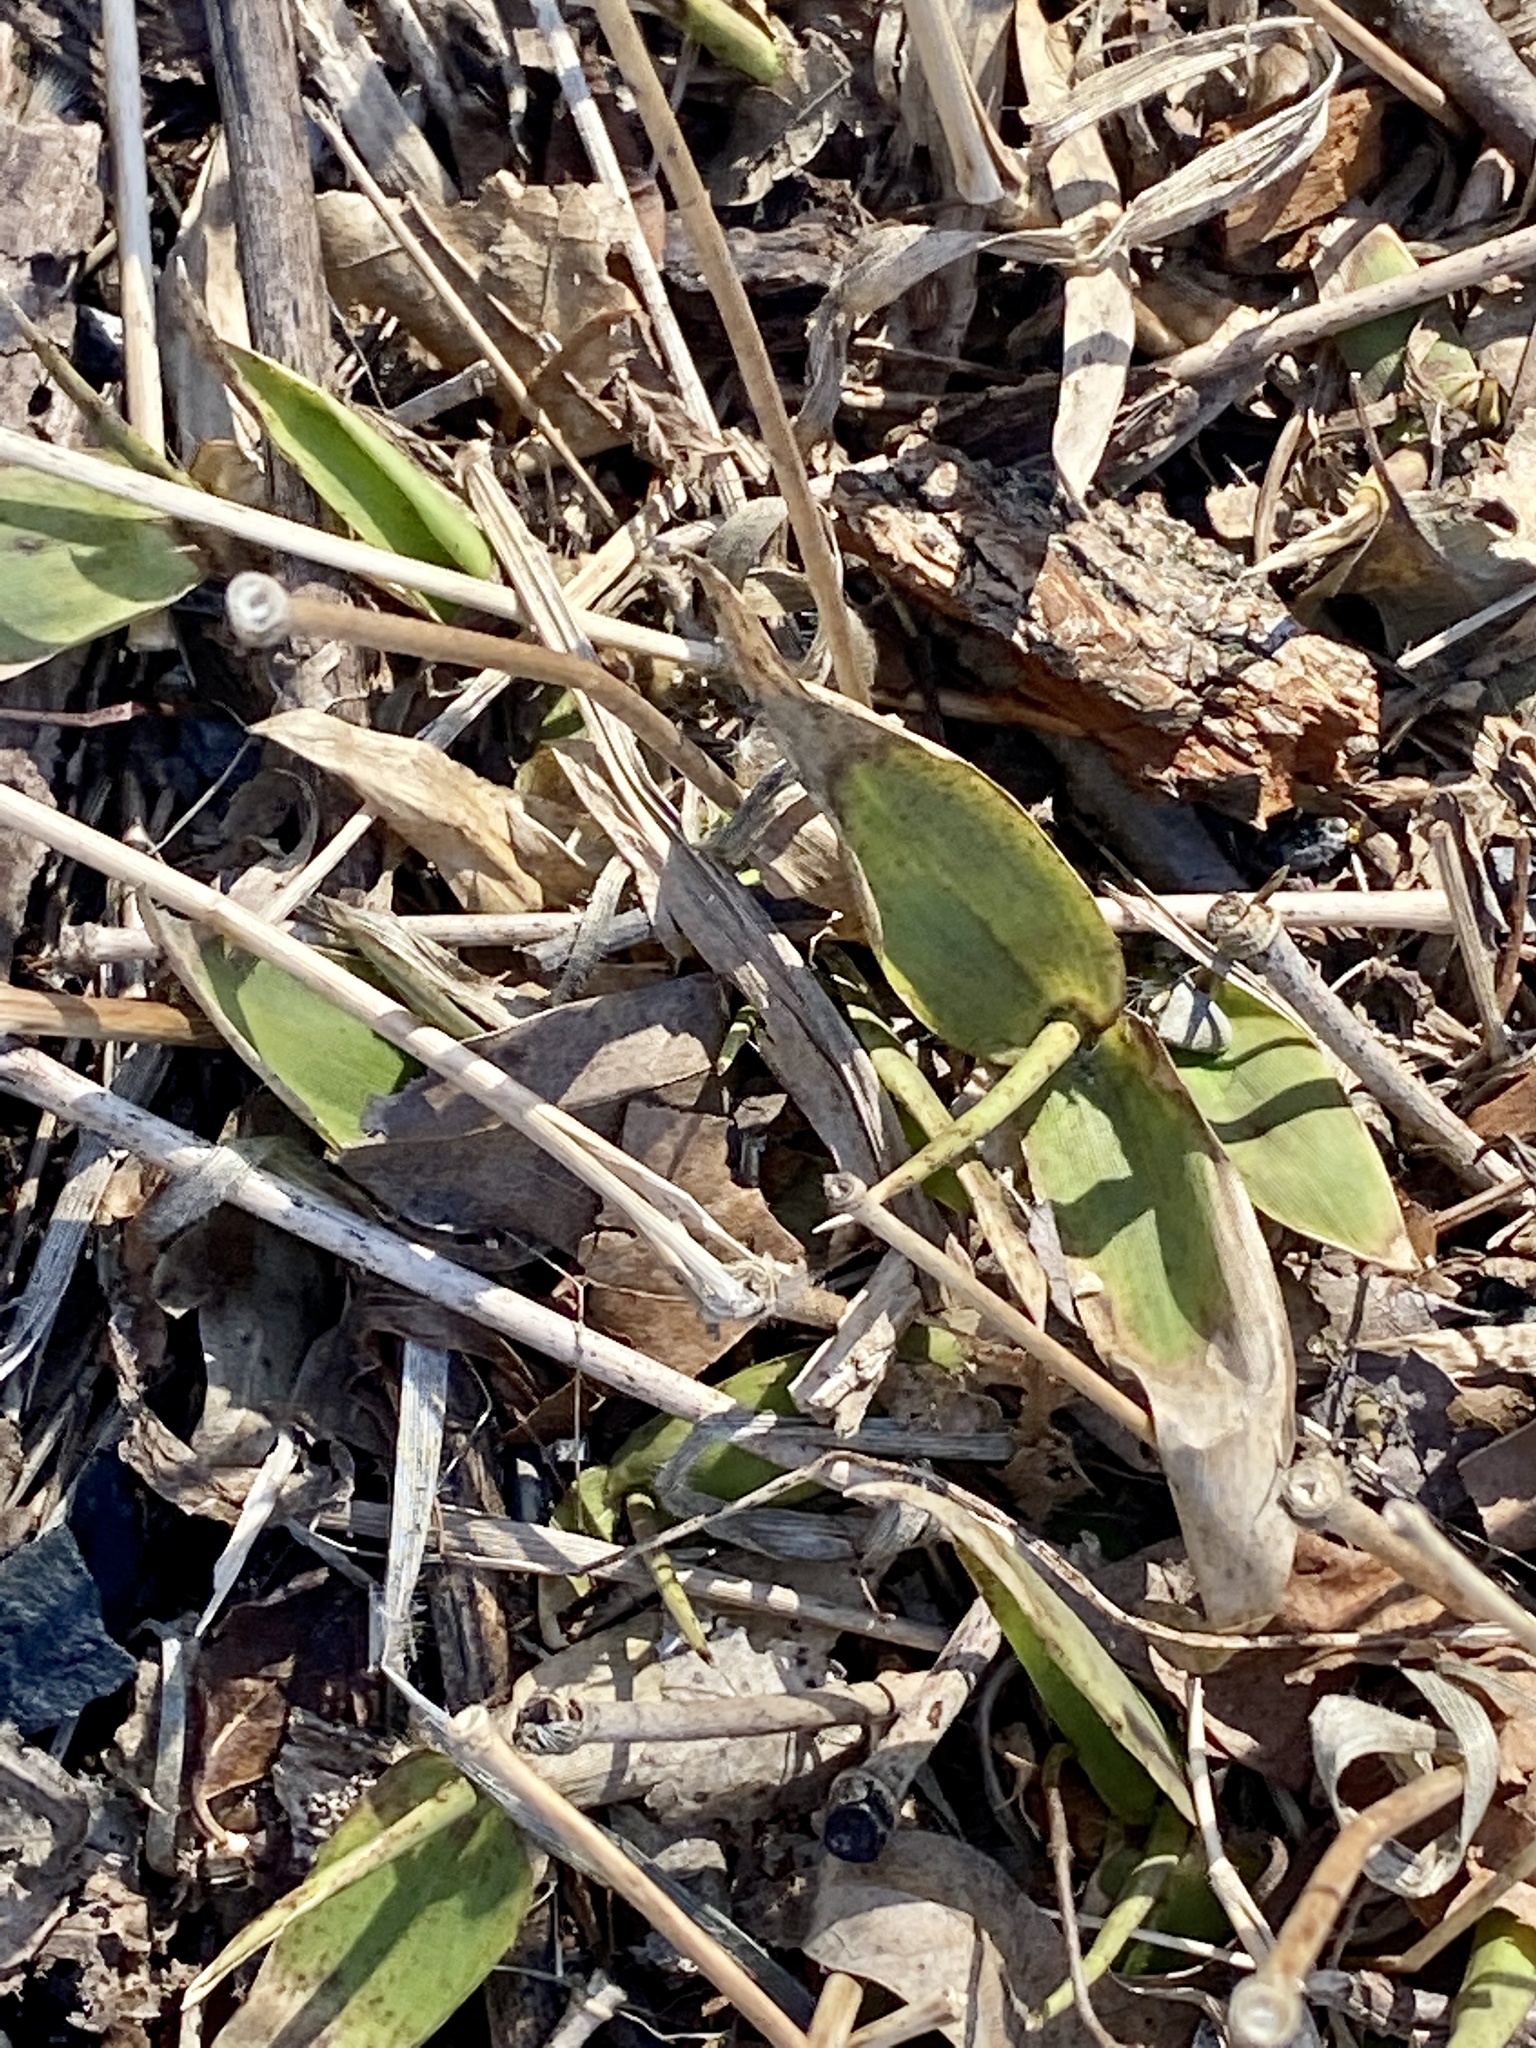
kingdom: Plantae
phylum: Tracheophyta
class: Liliopsida
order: Poales
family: Poaceae
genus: Dichanthelium
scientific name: Dichanthelium clandestinum
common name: Deer-tongue grass
